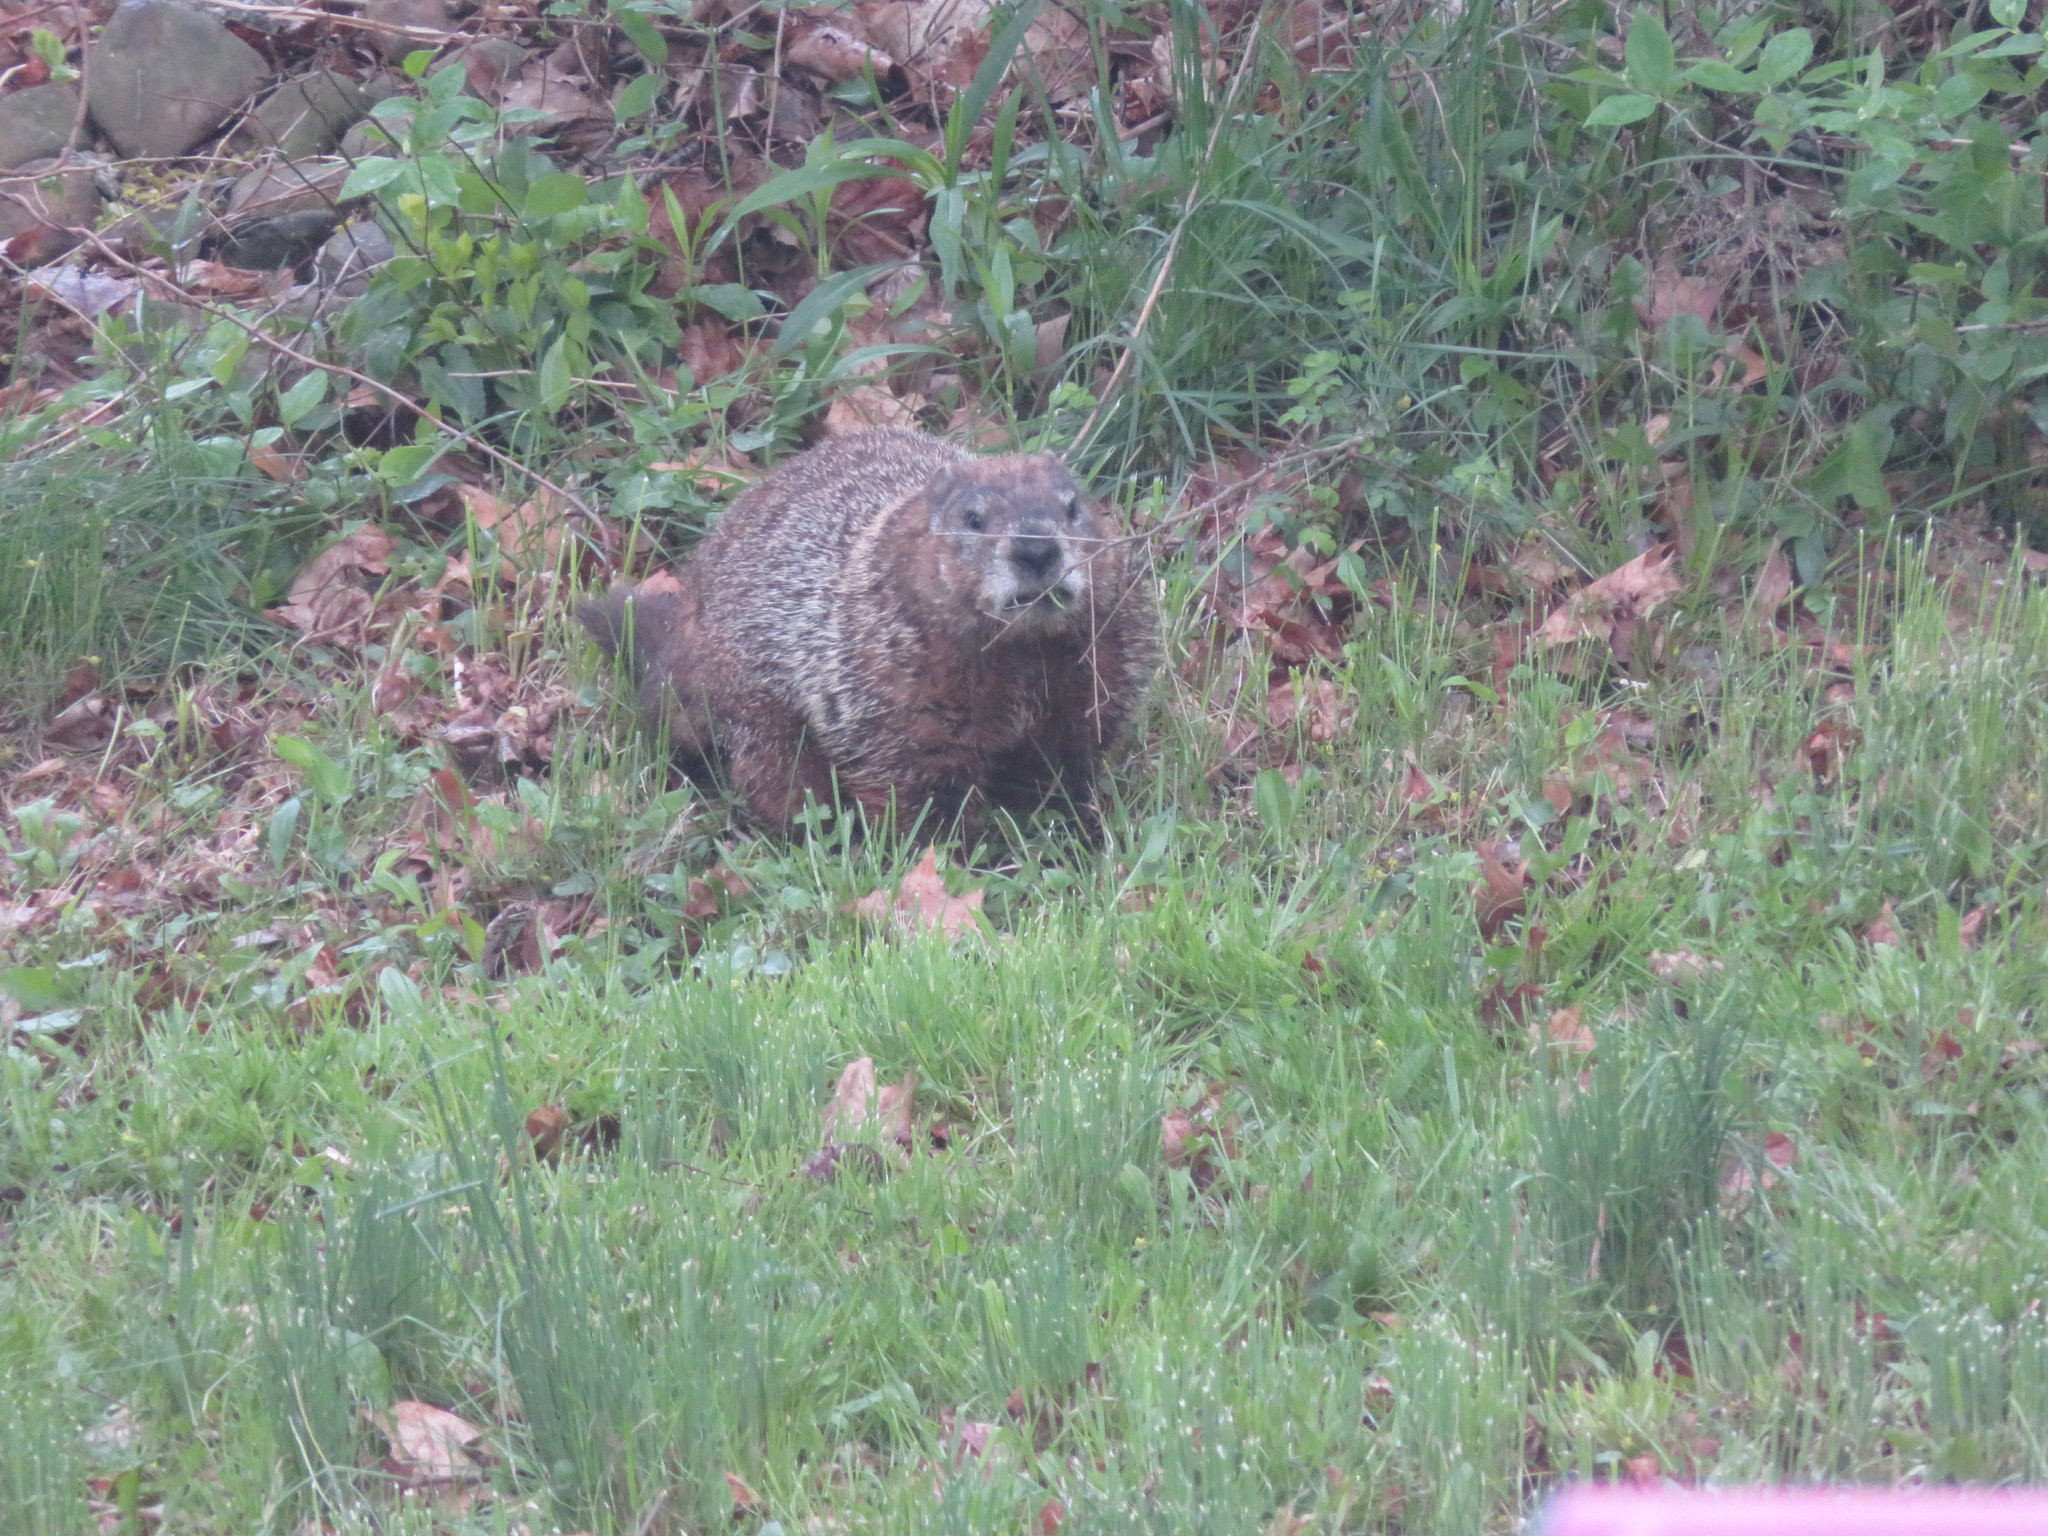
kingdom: Animalia
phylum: Chordata
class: Mammalia
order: Rodentia
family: Sciuridae
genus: Marmota
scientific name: Marmota monax
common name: Groundhog
